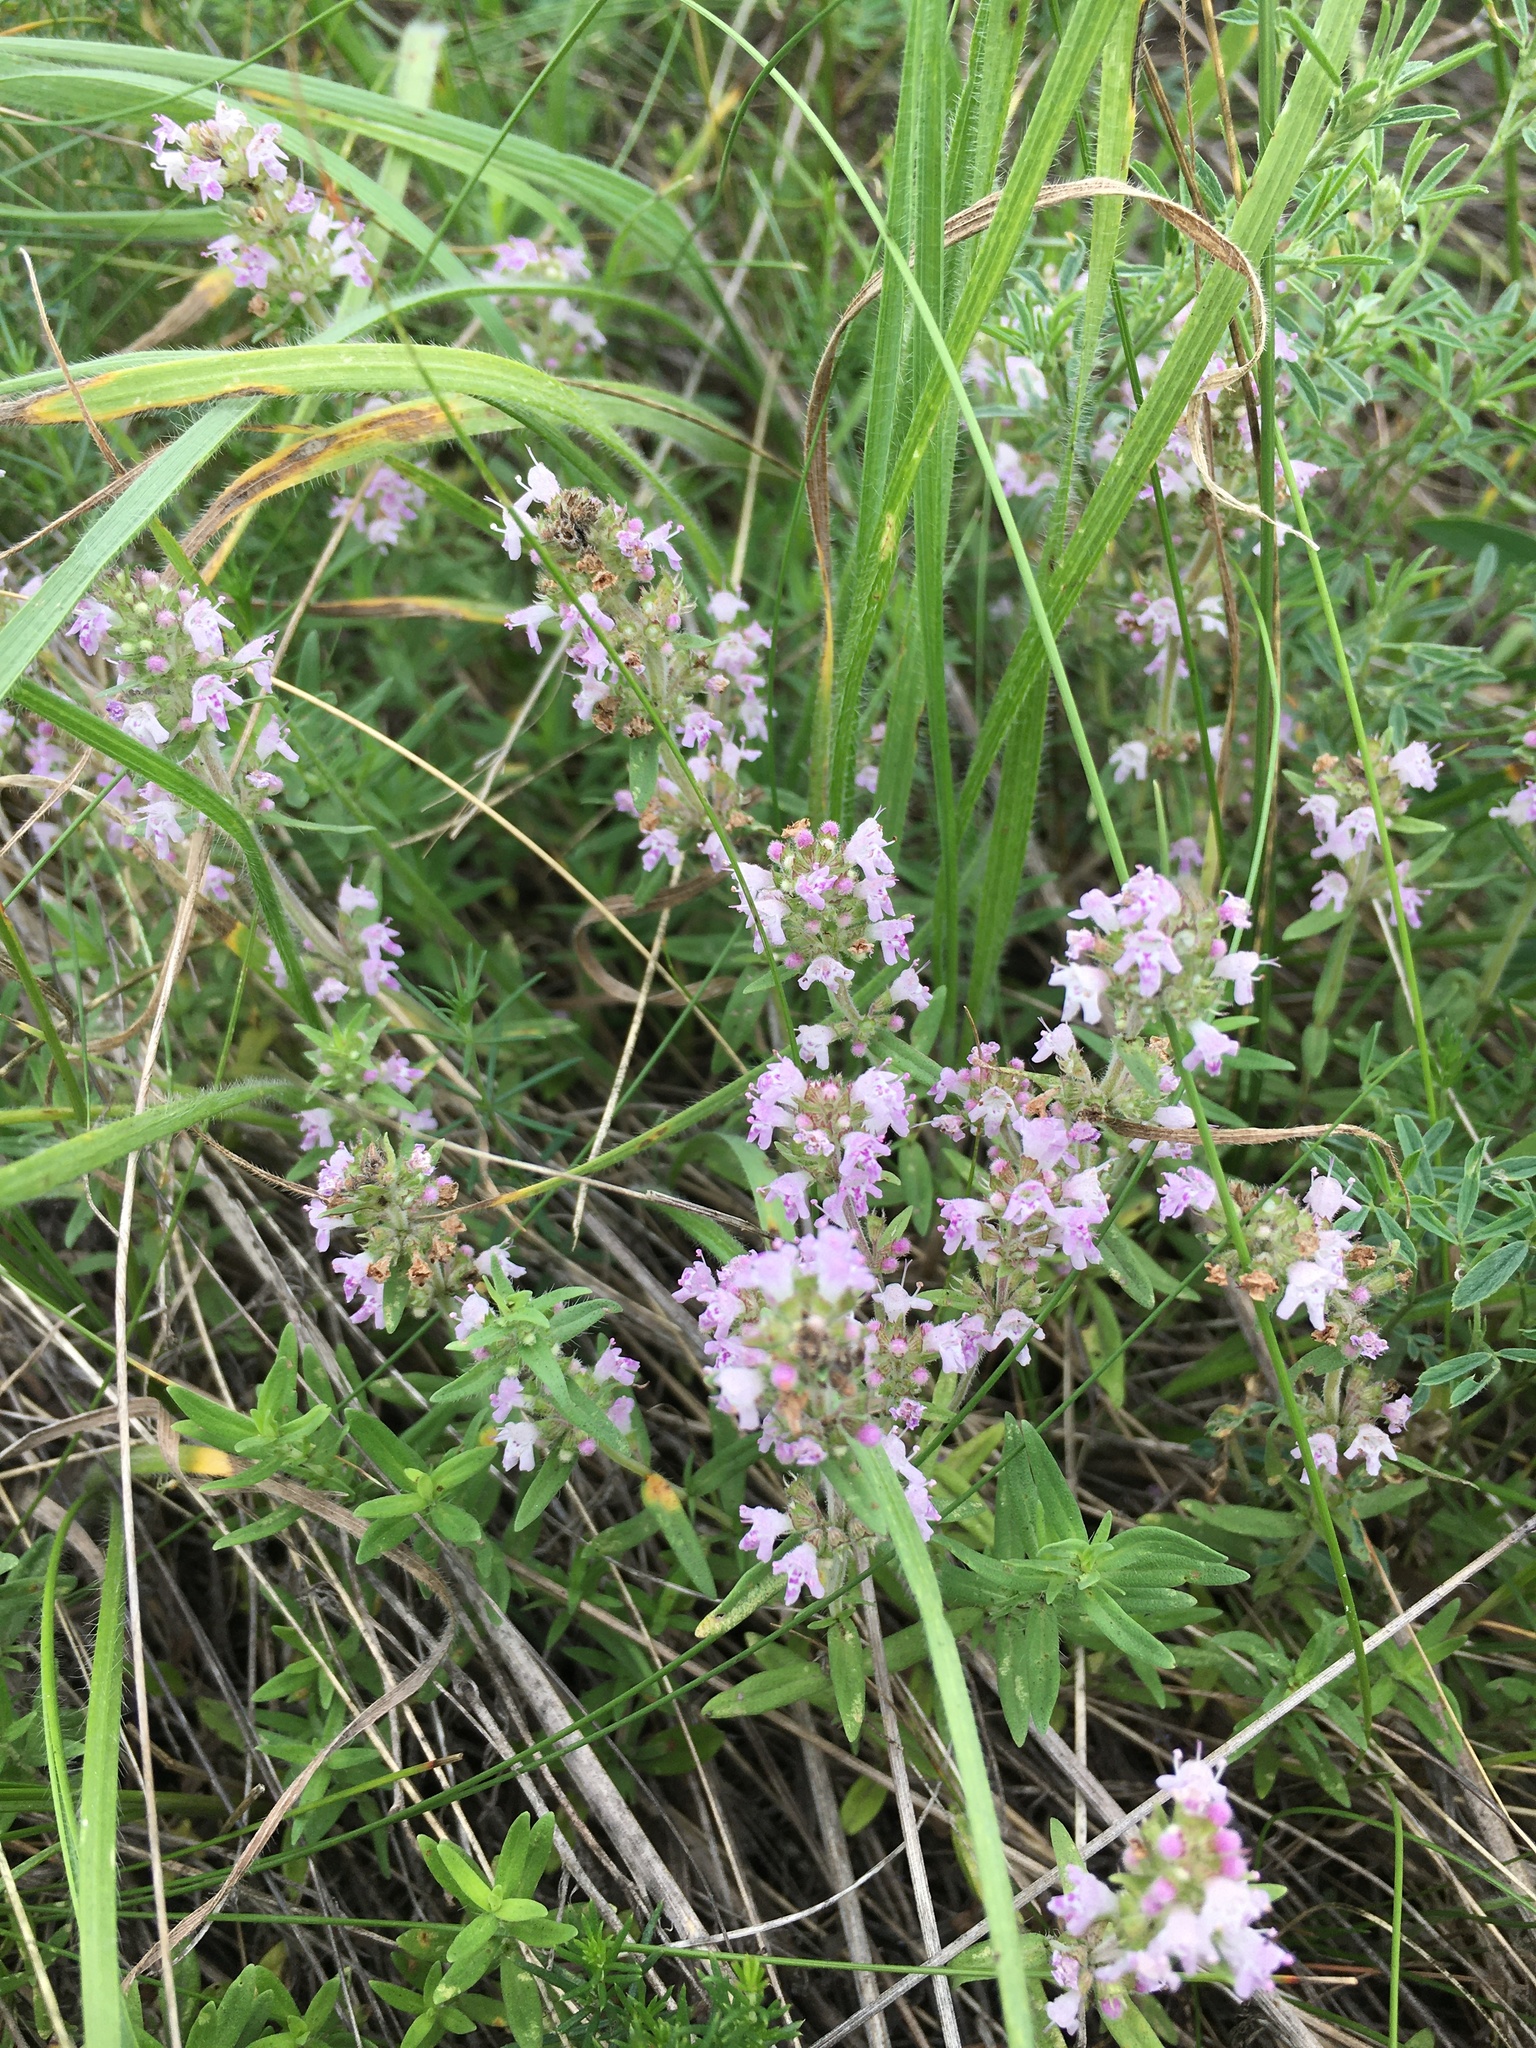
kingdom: Plantae
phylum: Tracheophyta
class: Magnoliopsida
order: Lamiales
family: Lamiaceae
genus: Thymus
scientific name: Thymus pannonicus
